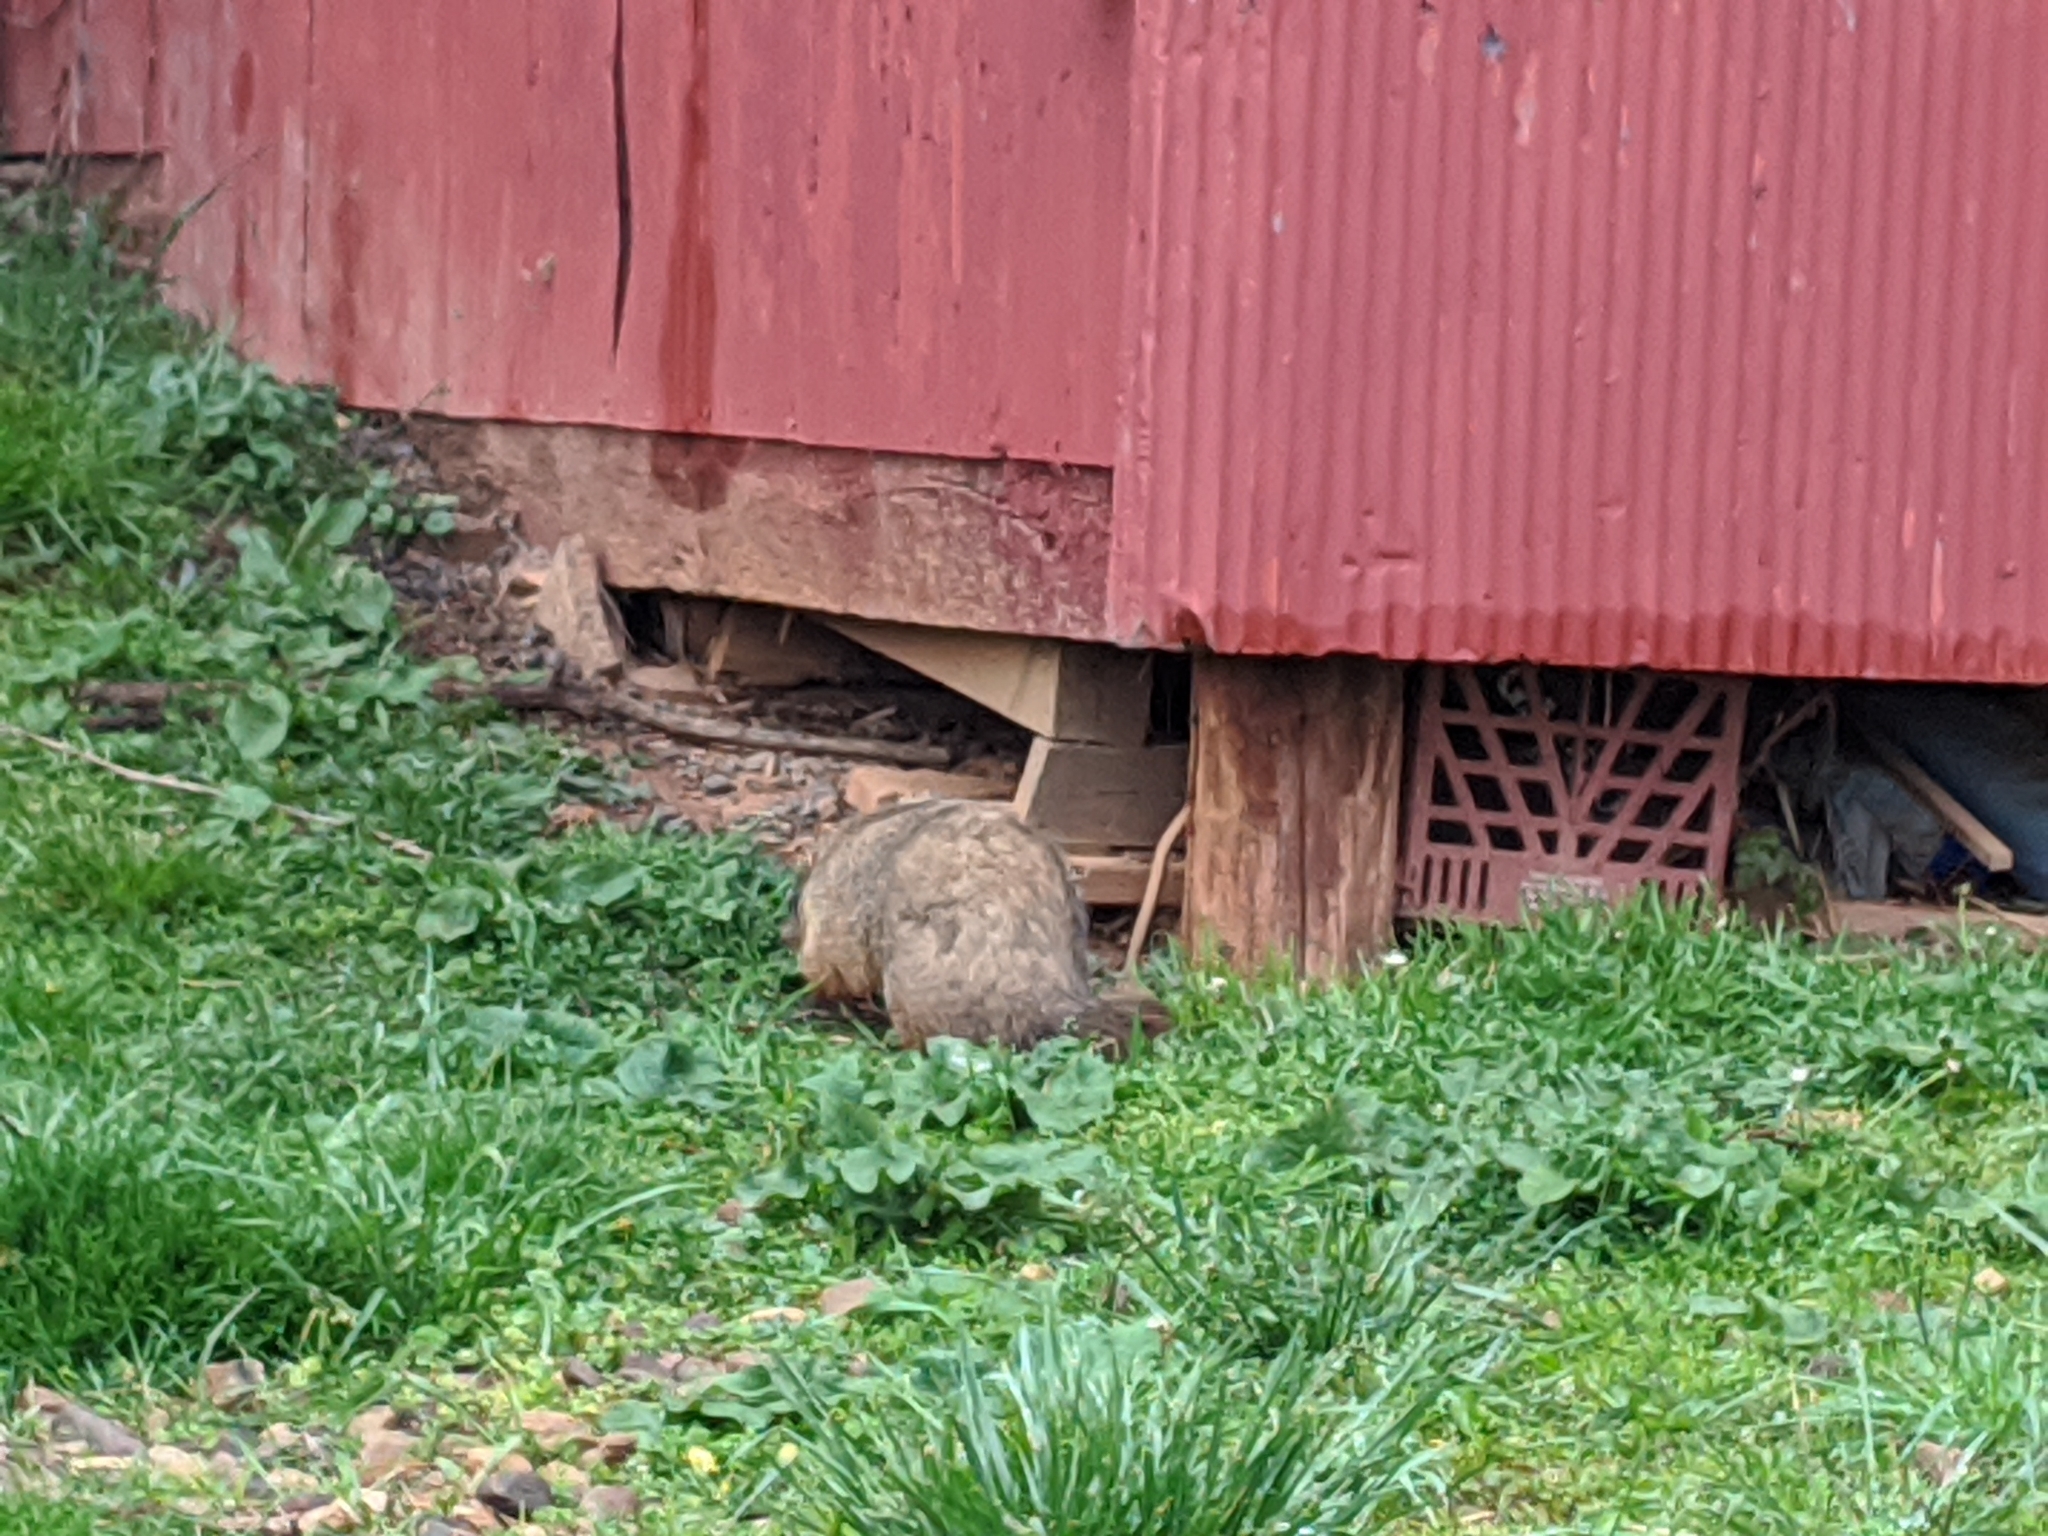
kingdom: Animalia
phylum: Chordata
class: Mammalia
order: Rodentia
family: Sciuridae
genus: Marmota
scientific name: Marmota monax
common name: Groundhog
